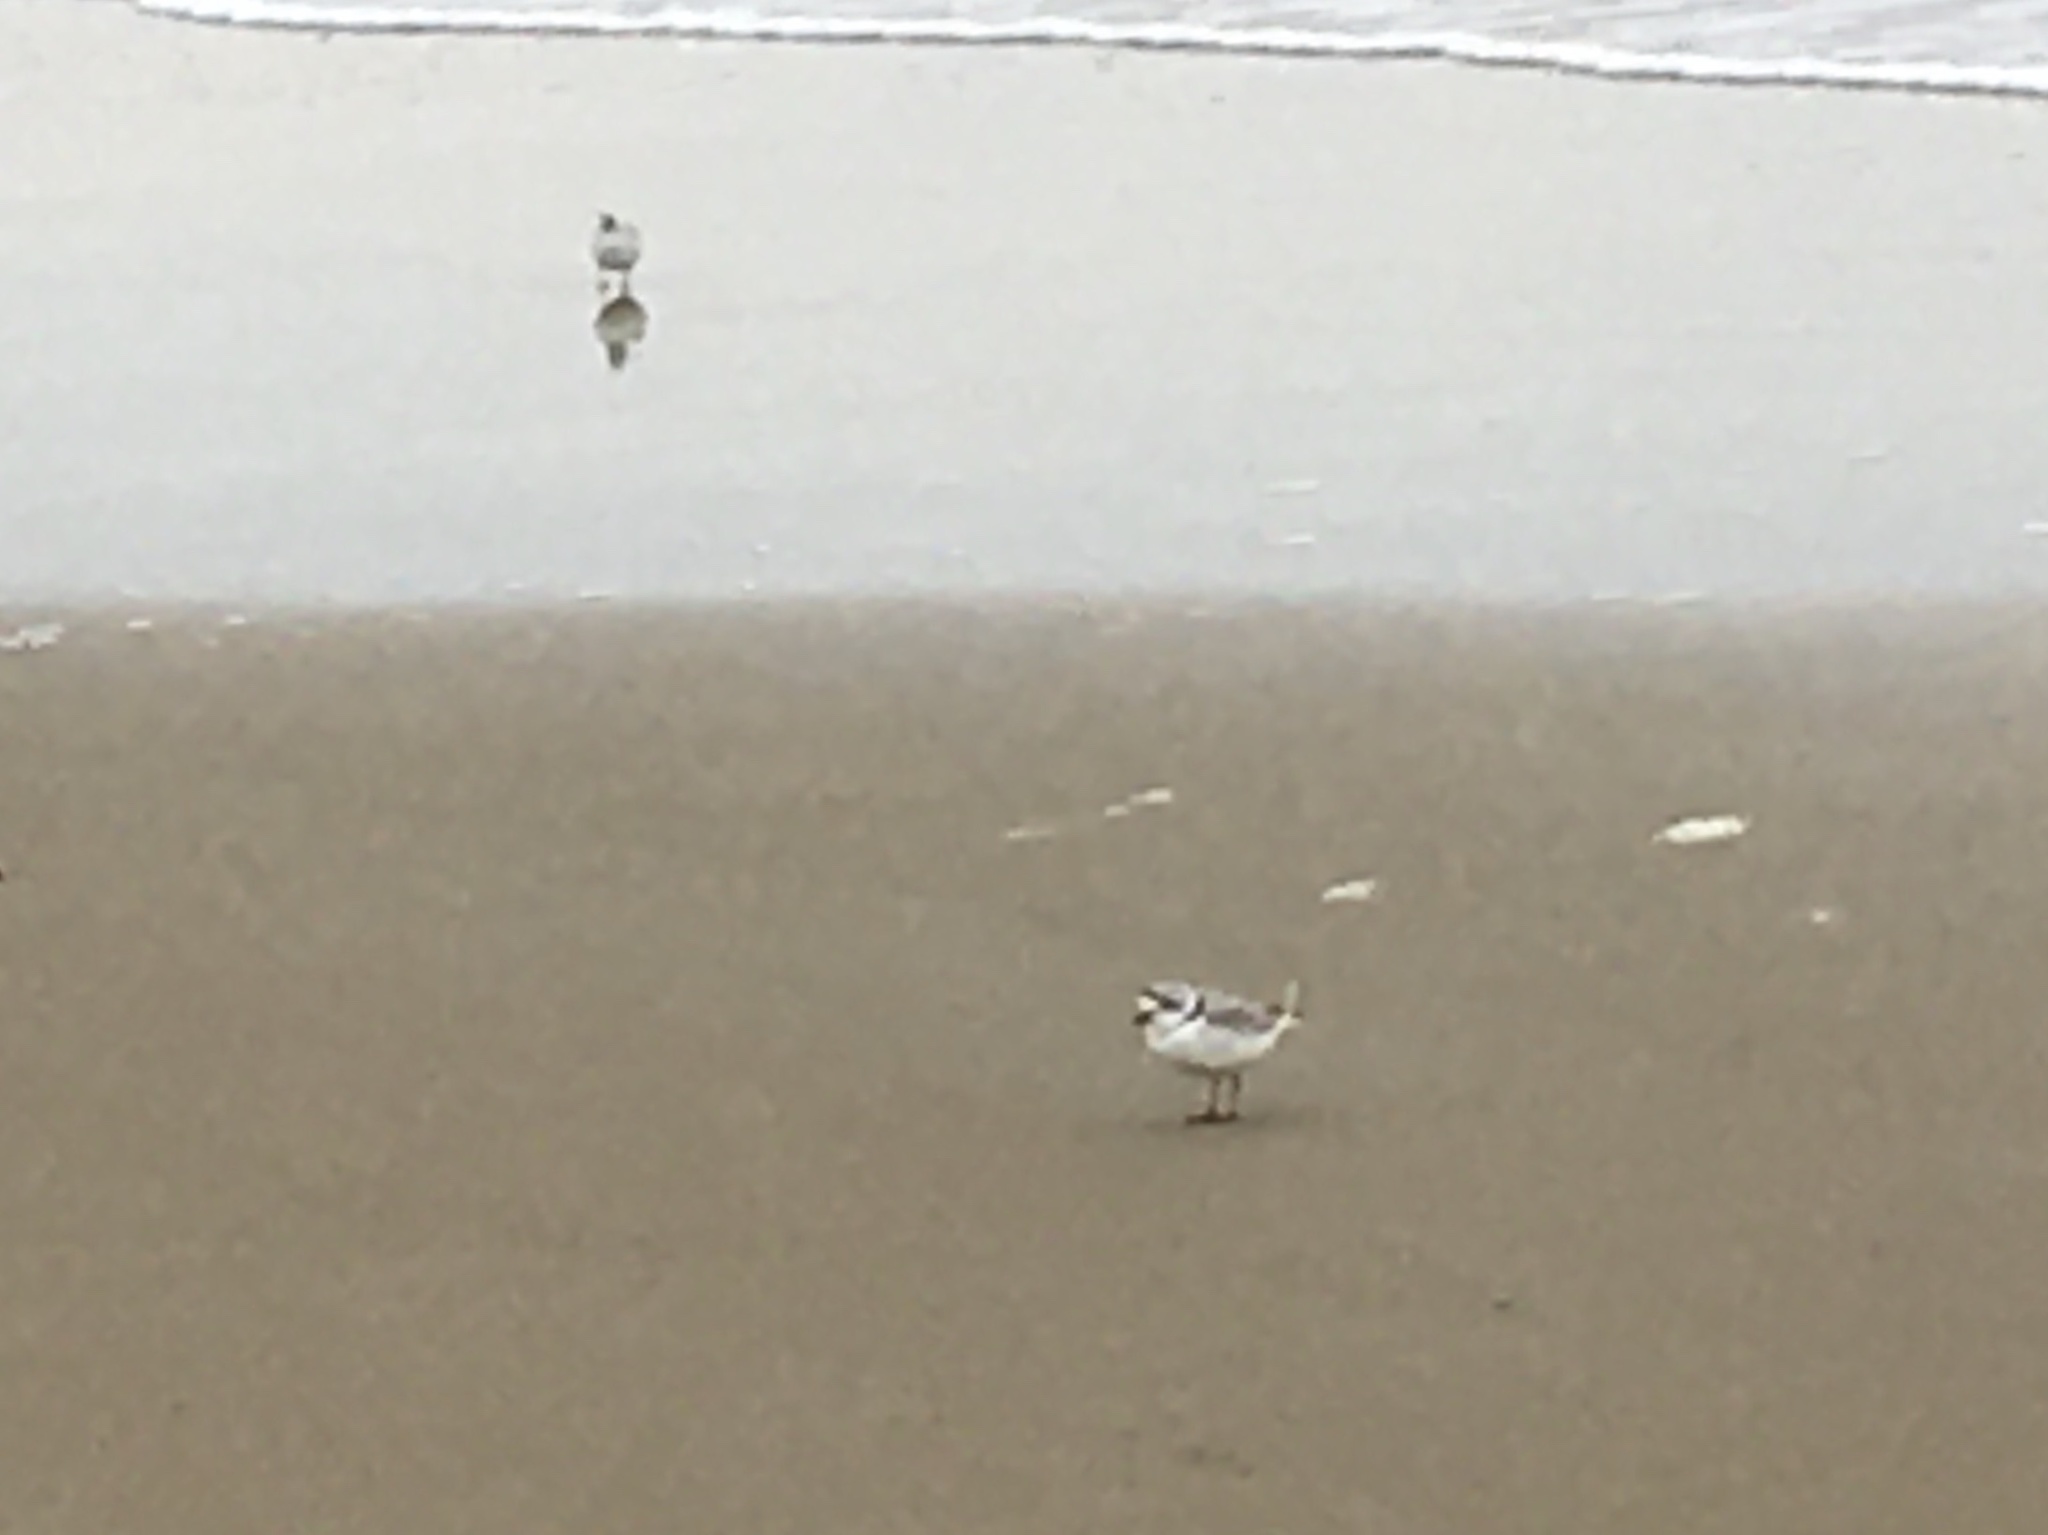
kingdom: Animalia
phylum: Chordata
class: Aves
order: Charadriiformes
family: Charadriidae
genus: Charadrius
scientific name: Charadrius melodus
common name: Piping plover
